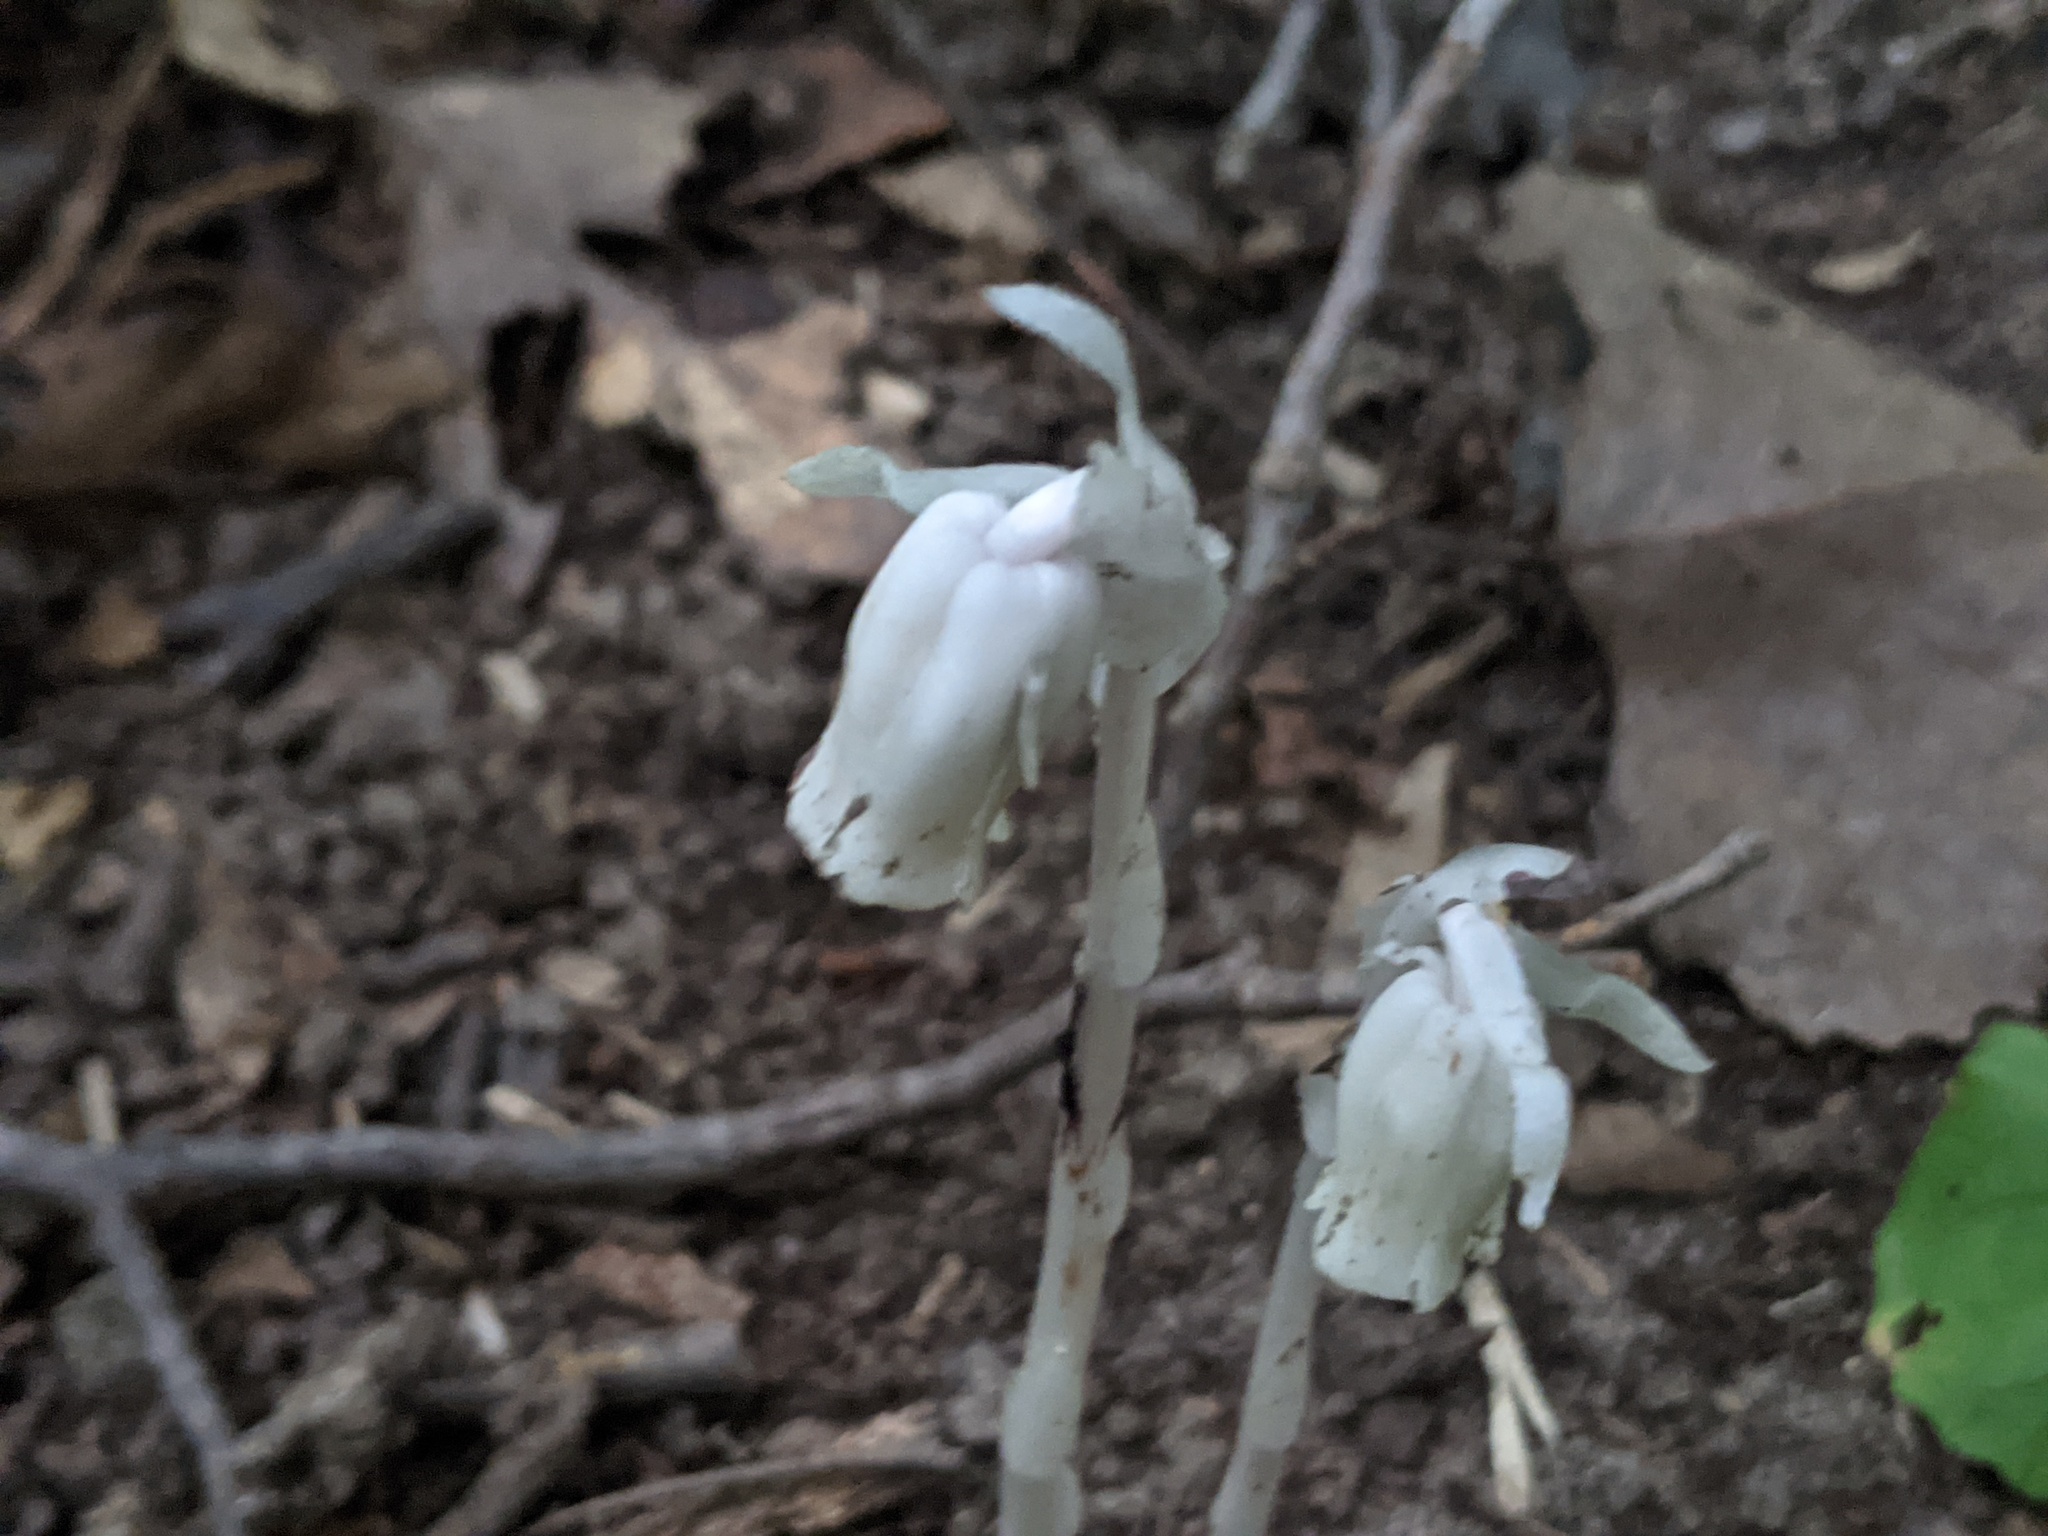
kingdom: Plantae
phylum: Tracheophyta
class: Magnoliopsida
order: Ericales
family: Ericaceae
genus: Monotropa
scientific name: Monotropa uniflora
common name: Convulsion root
